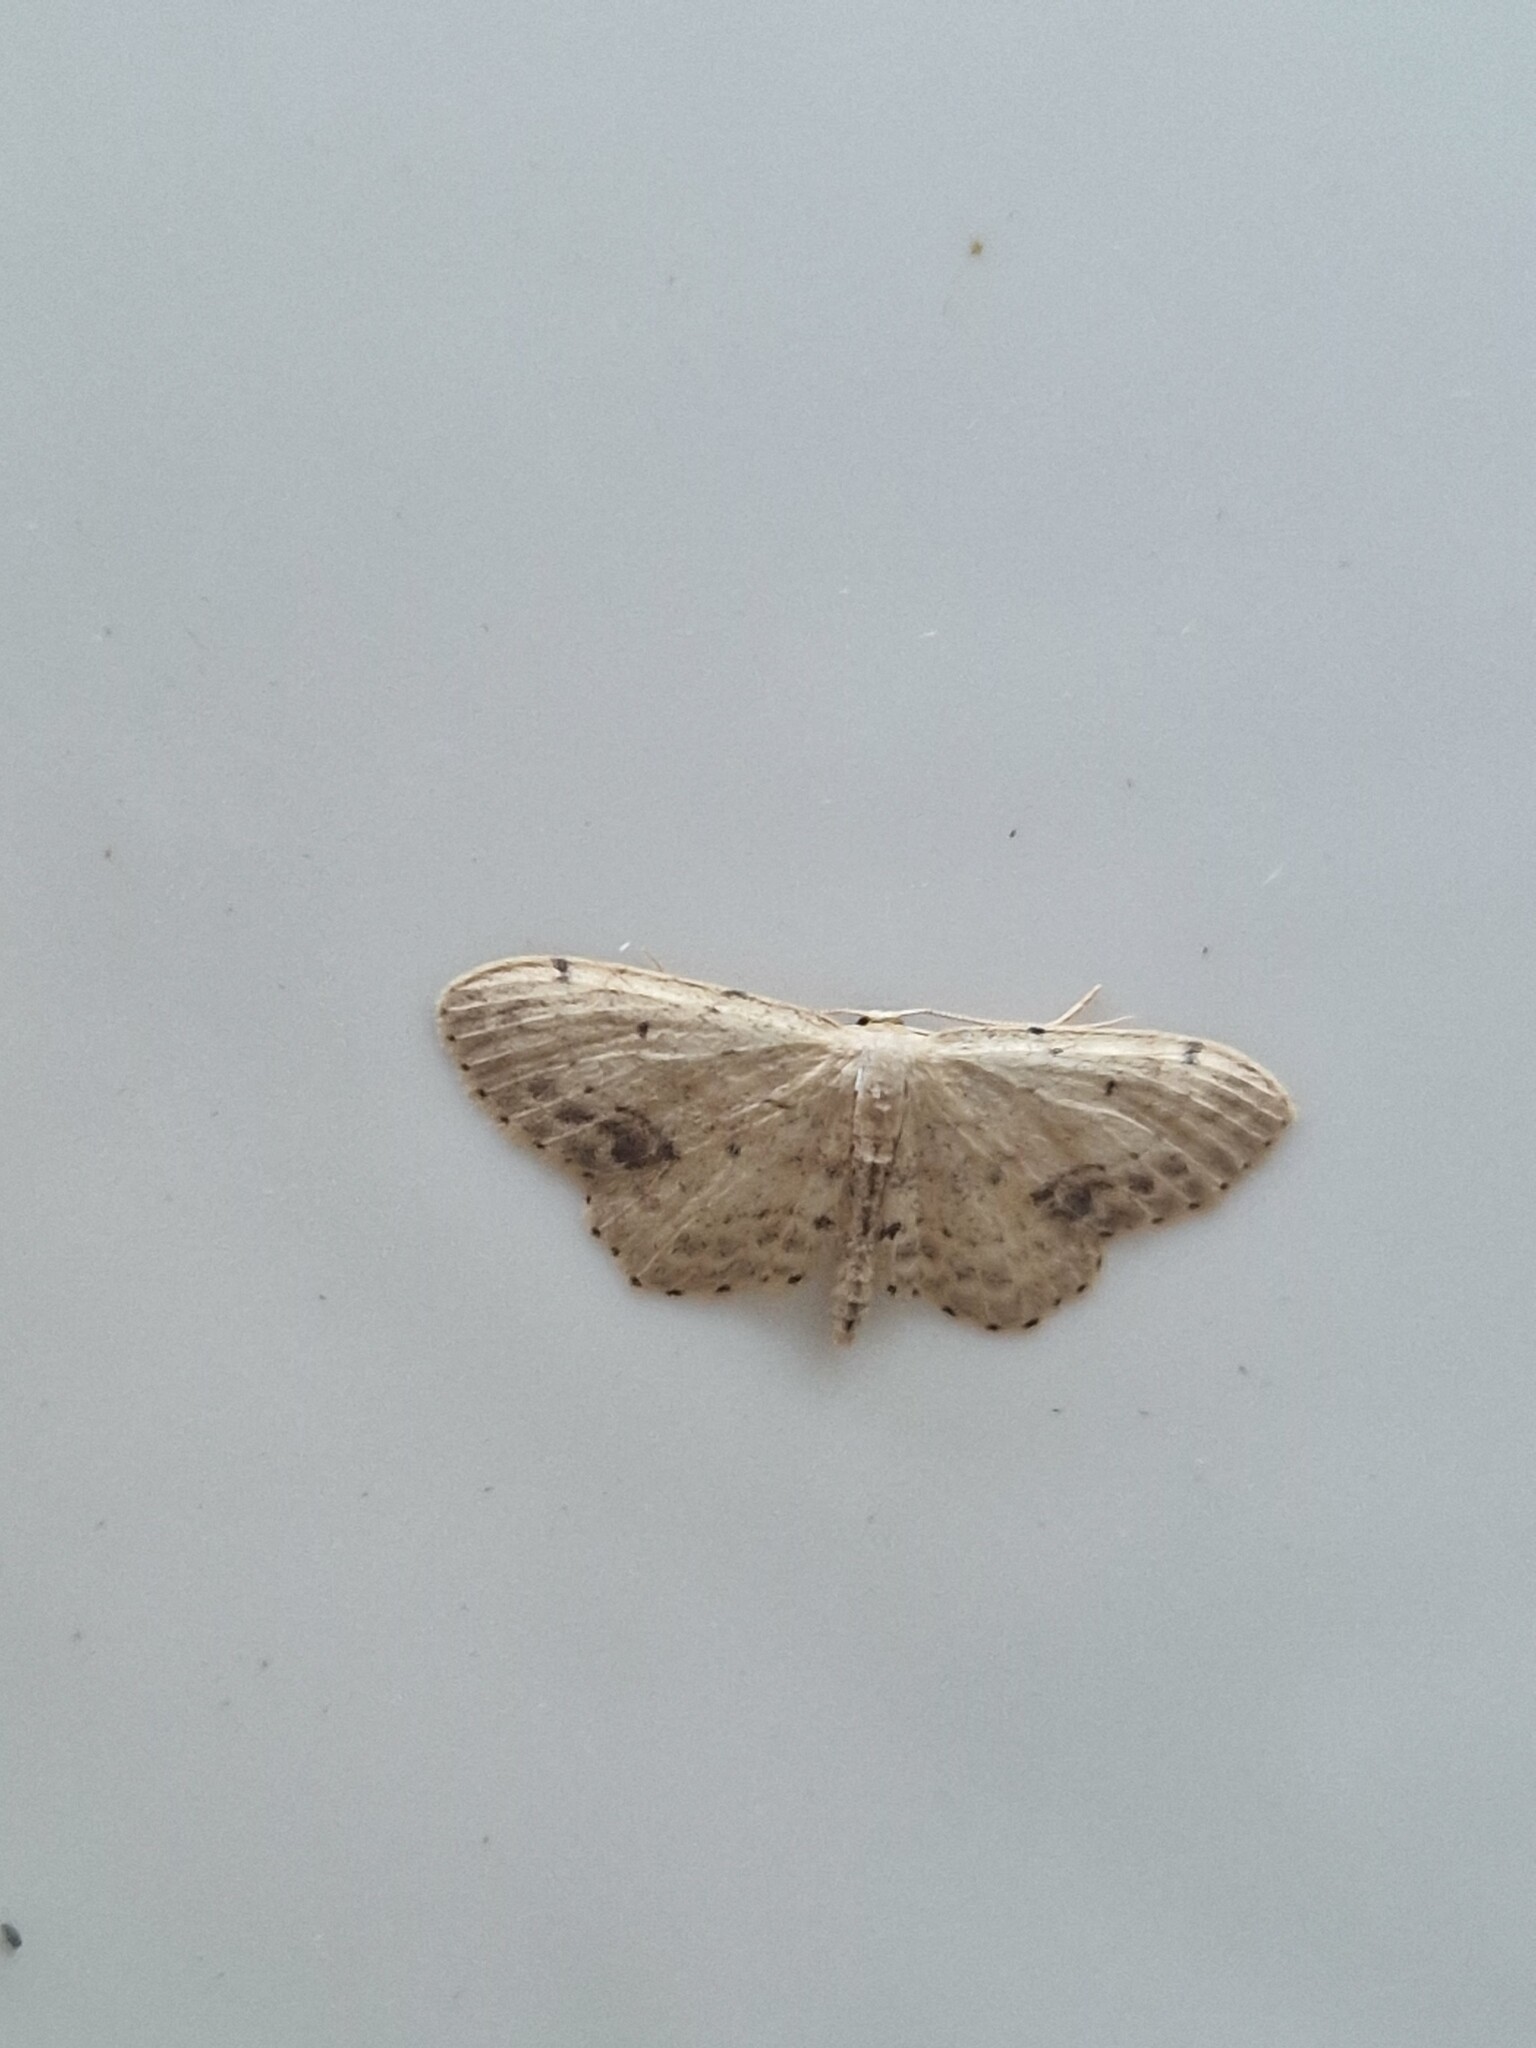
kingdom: Animalia
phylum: Arthropoda
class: Insecta
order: Lepidoptera
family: Geometridae
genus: Idaea
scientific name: Idaea dimidiata
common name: Single-dotted wave
